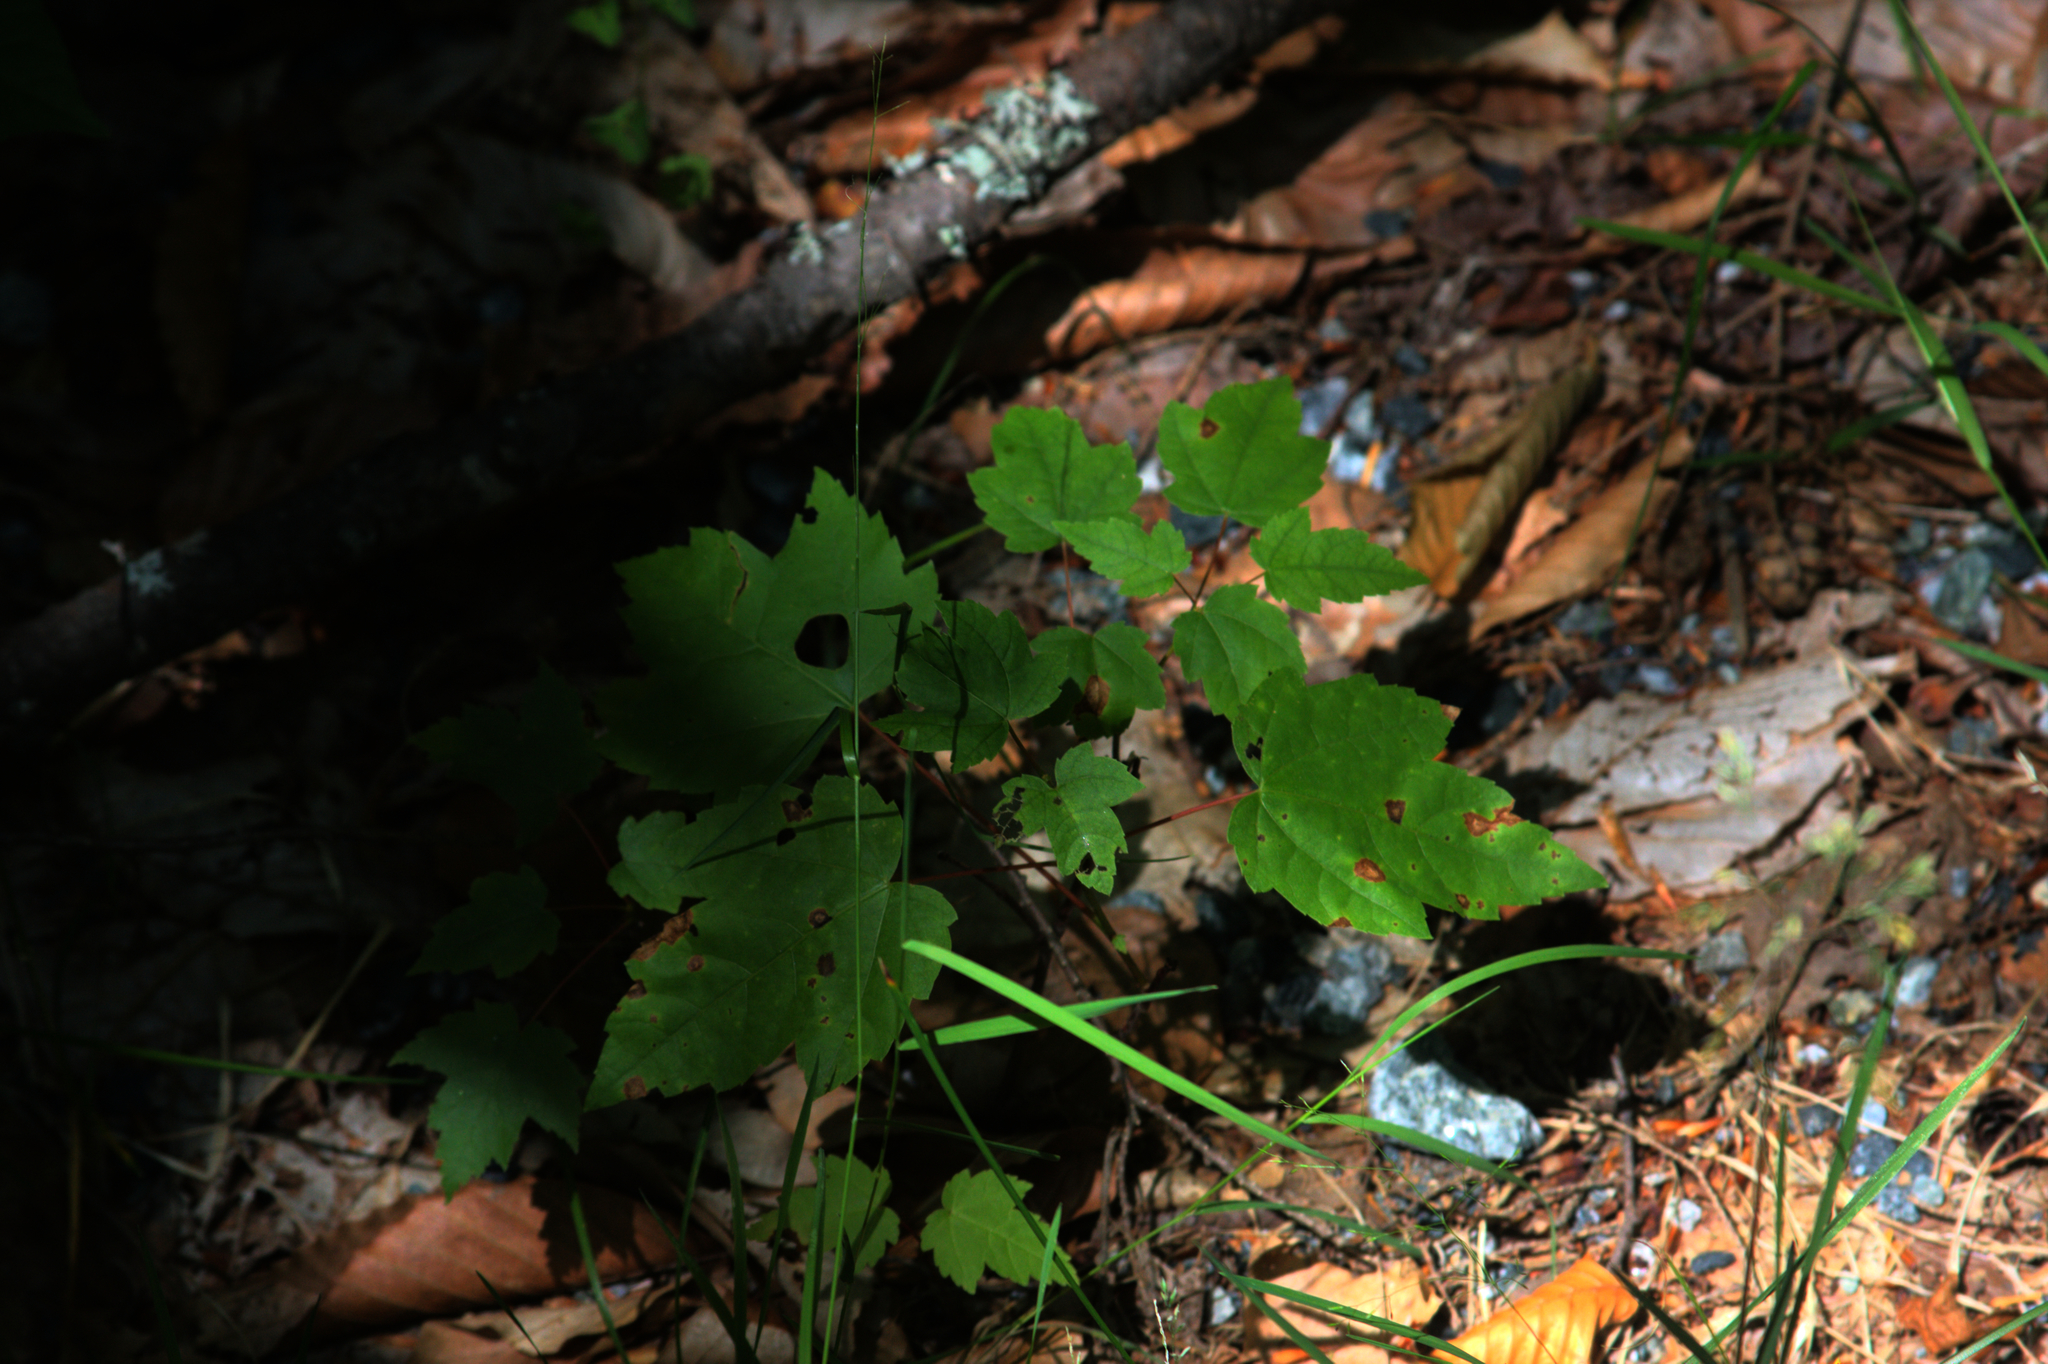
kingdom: Plantae
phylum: Tracheophyta
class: Magnoliopsida
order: Sapindales
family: Sapindaceae
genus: Acer
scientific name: Acer rubrum
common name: Red maple
